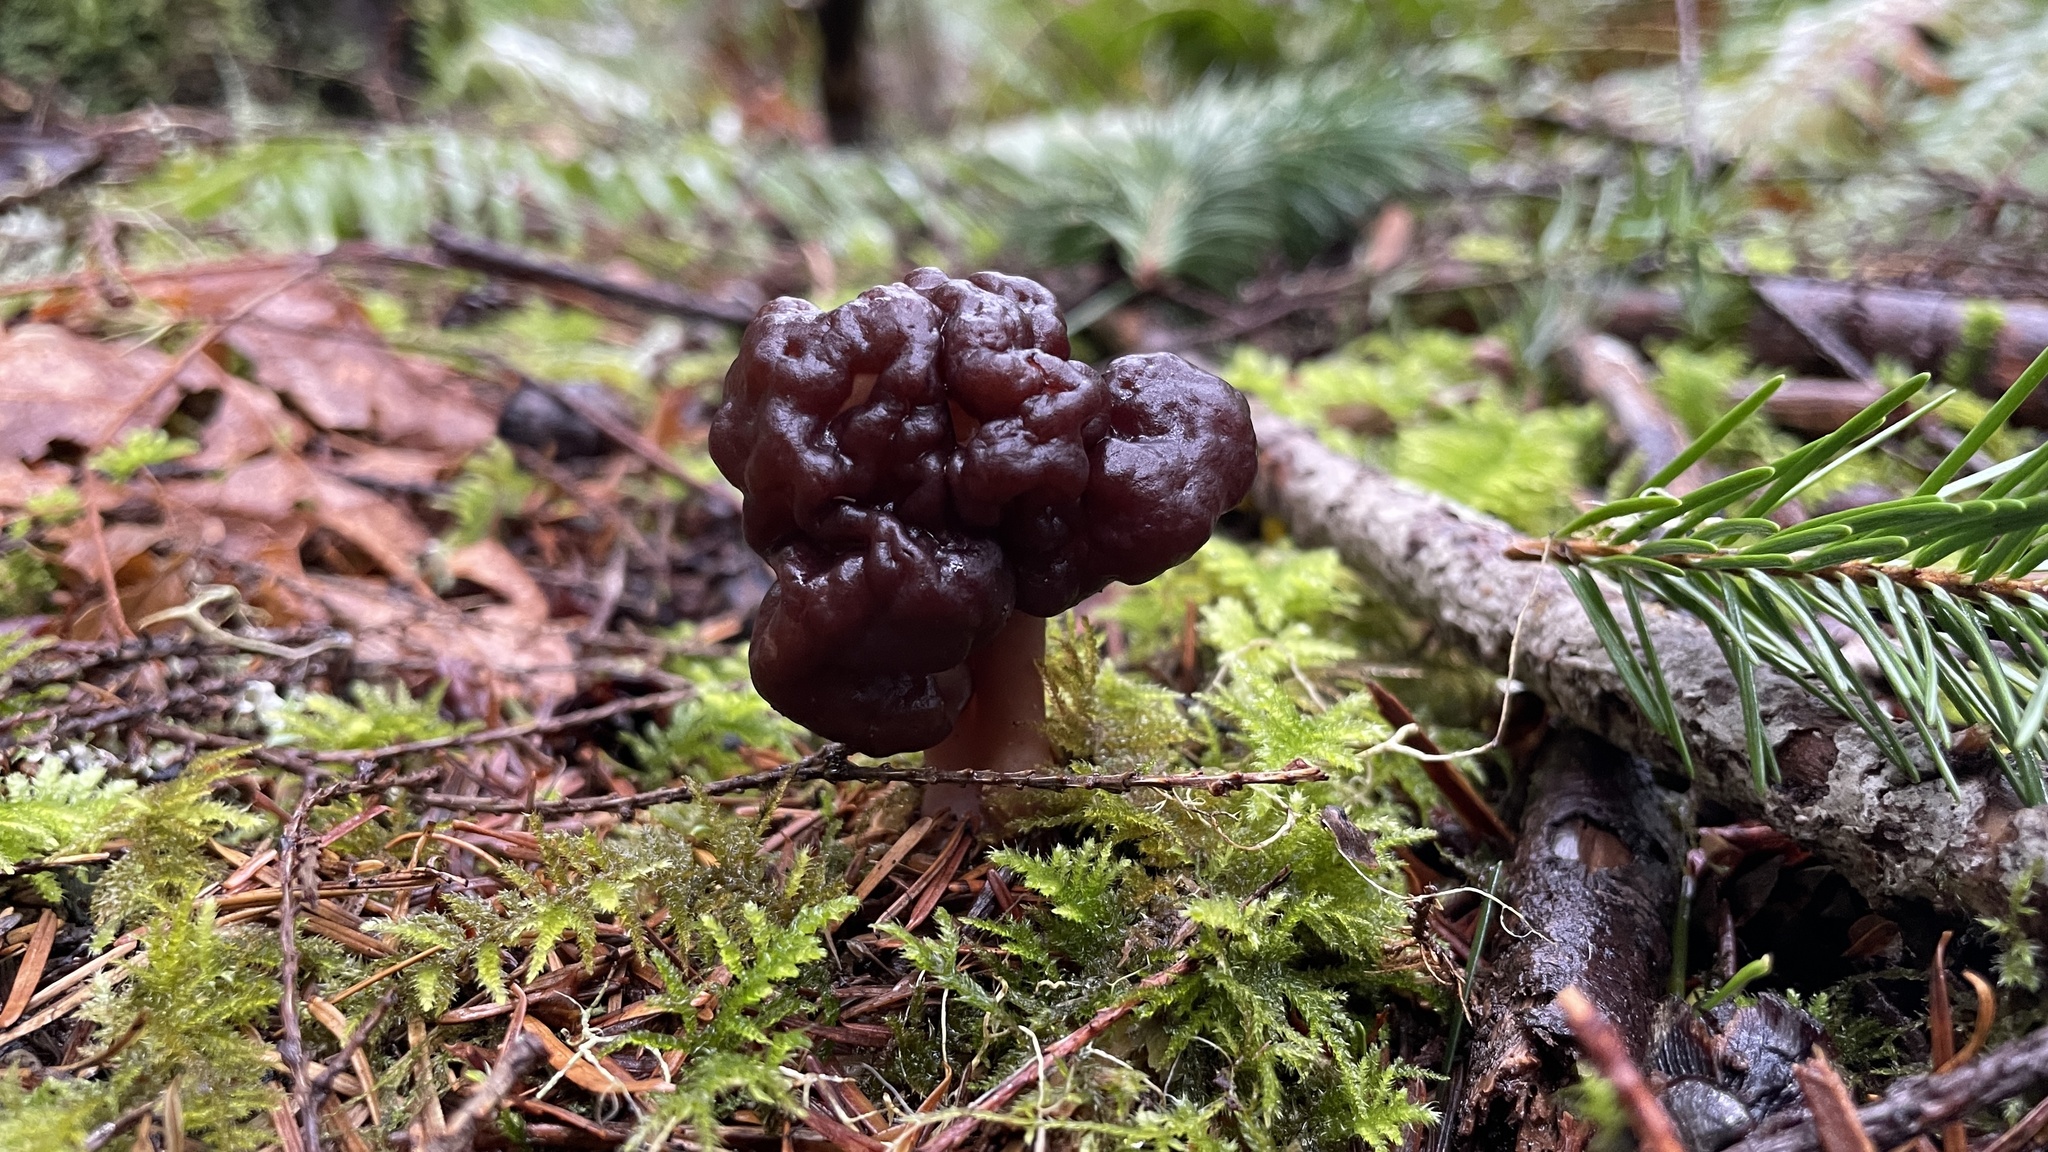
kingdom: Fungi
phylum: Ascomycota
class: Pezizomycetes
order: Pezizales
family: Discinaceae
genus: Gyromitra
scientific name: Gyromitra esculenta
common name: False morel
